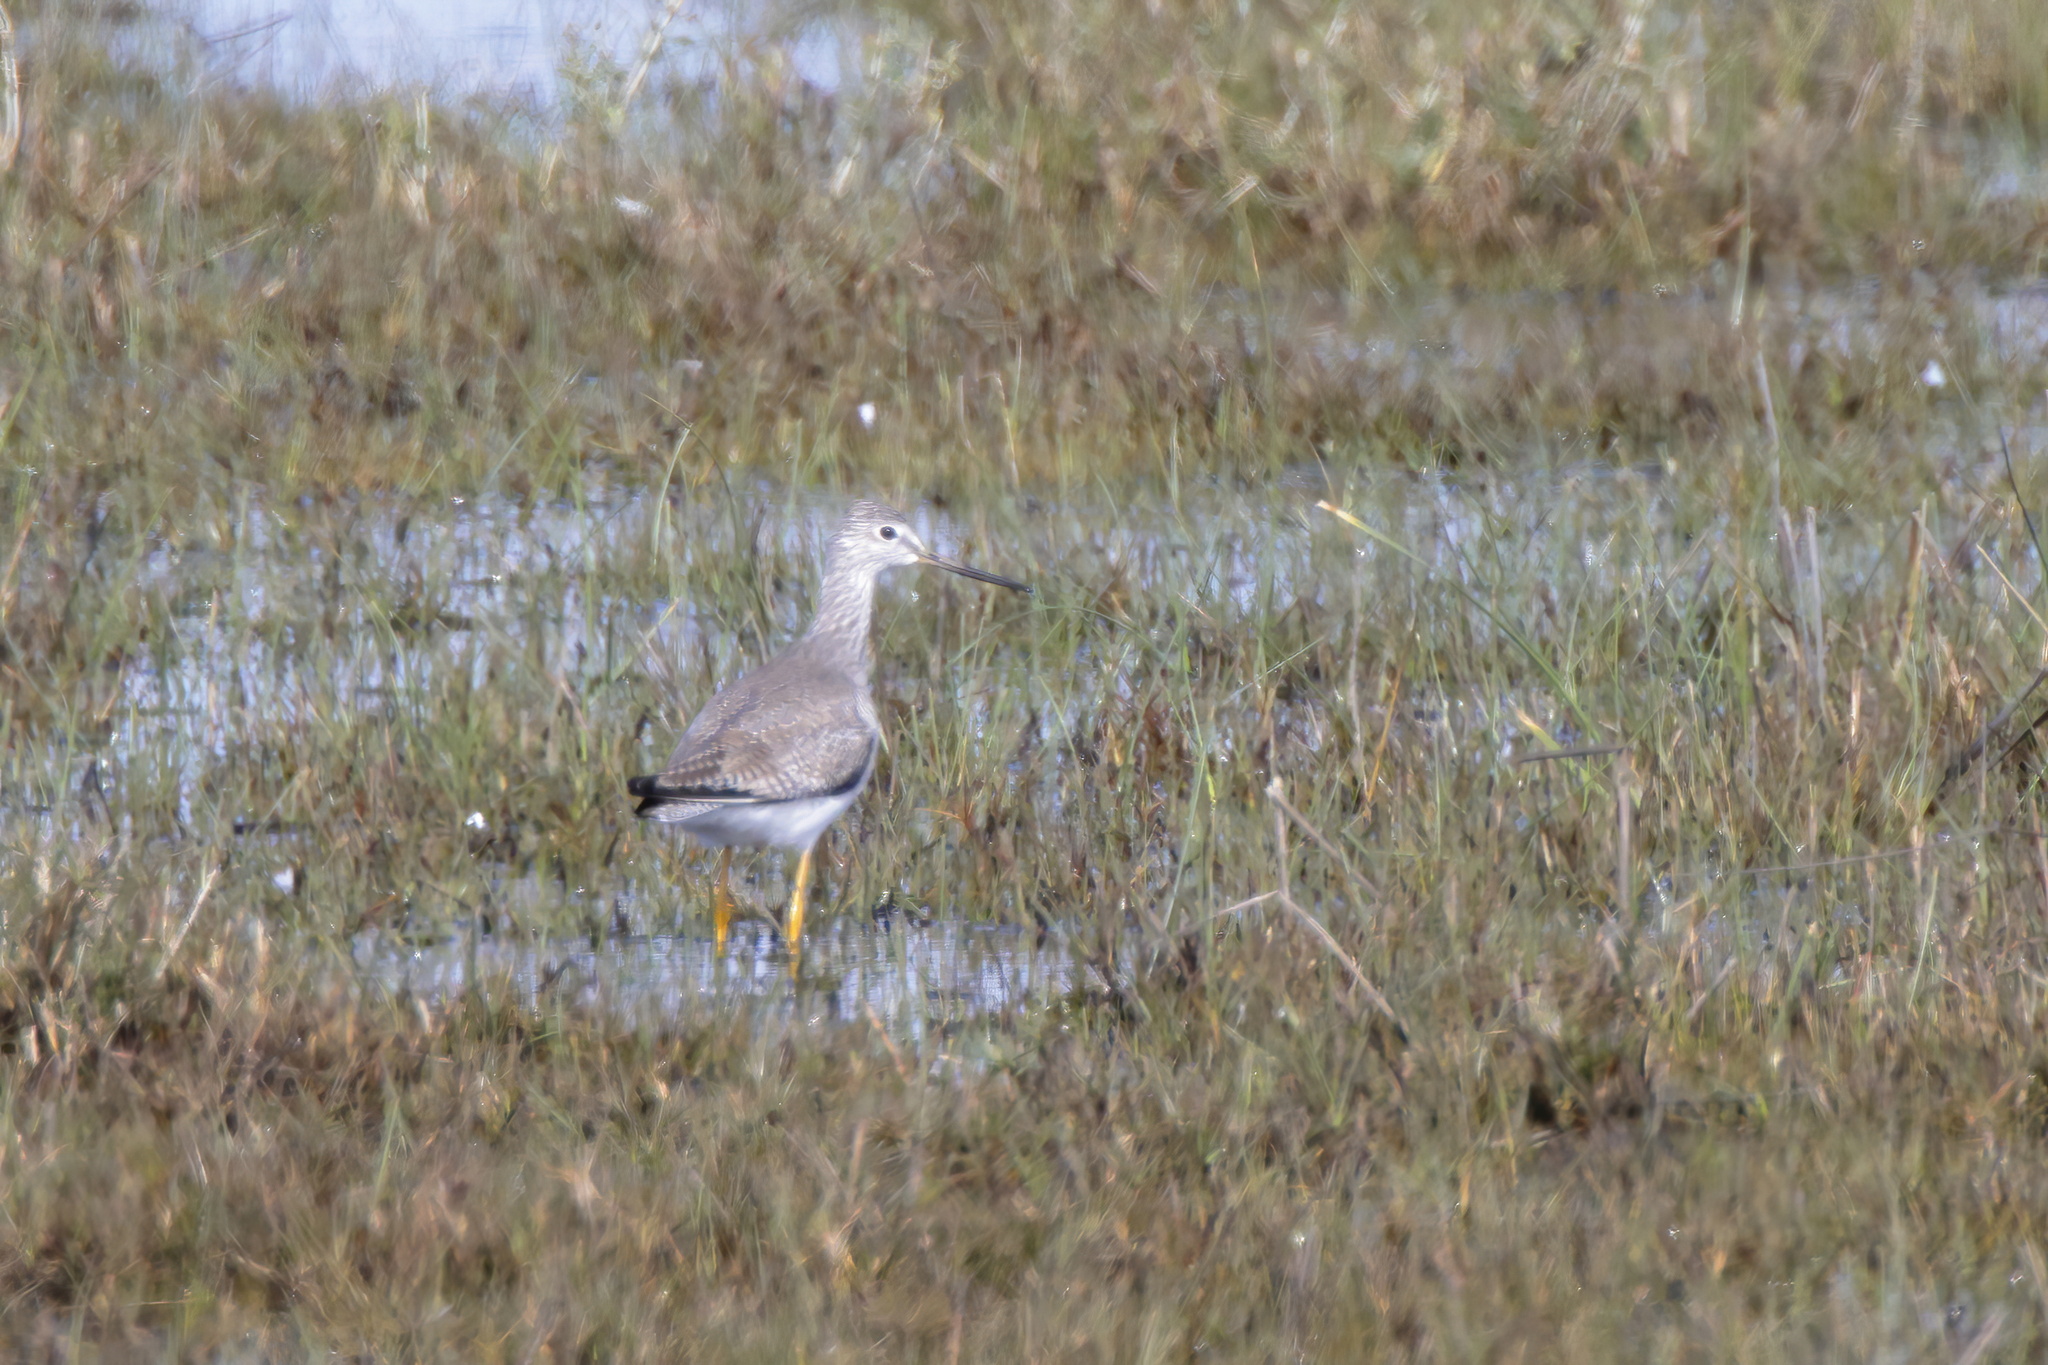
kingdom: Animalia
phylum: Chordata
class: Aves
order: Charadriiformes
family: Scolopacidae
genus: Tringa
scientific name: Tringa melanoleuca
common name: Greater yellowlegs
